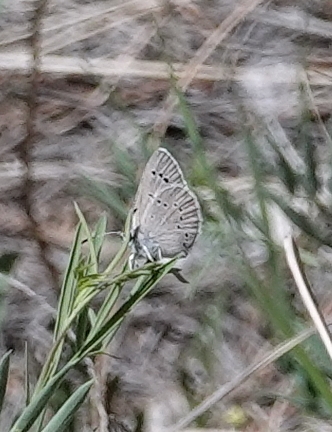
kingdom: Animalia
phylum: Arthropoda
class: Insecta
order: Lepidoptera
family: Lycaenidae
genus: Glaucopsyche
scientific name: Glaucopsyche lygdamus
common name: Silvery blue
